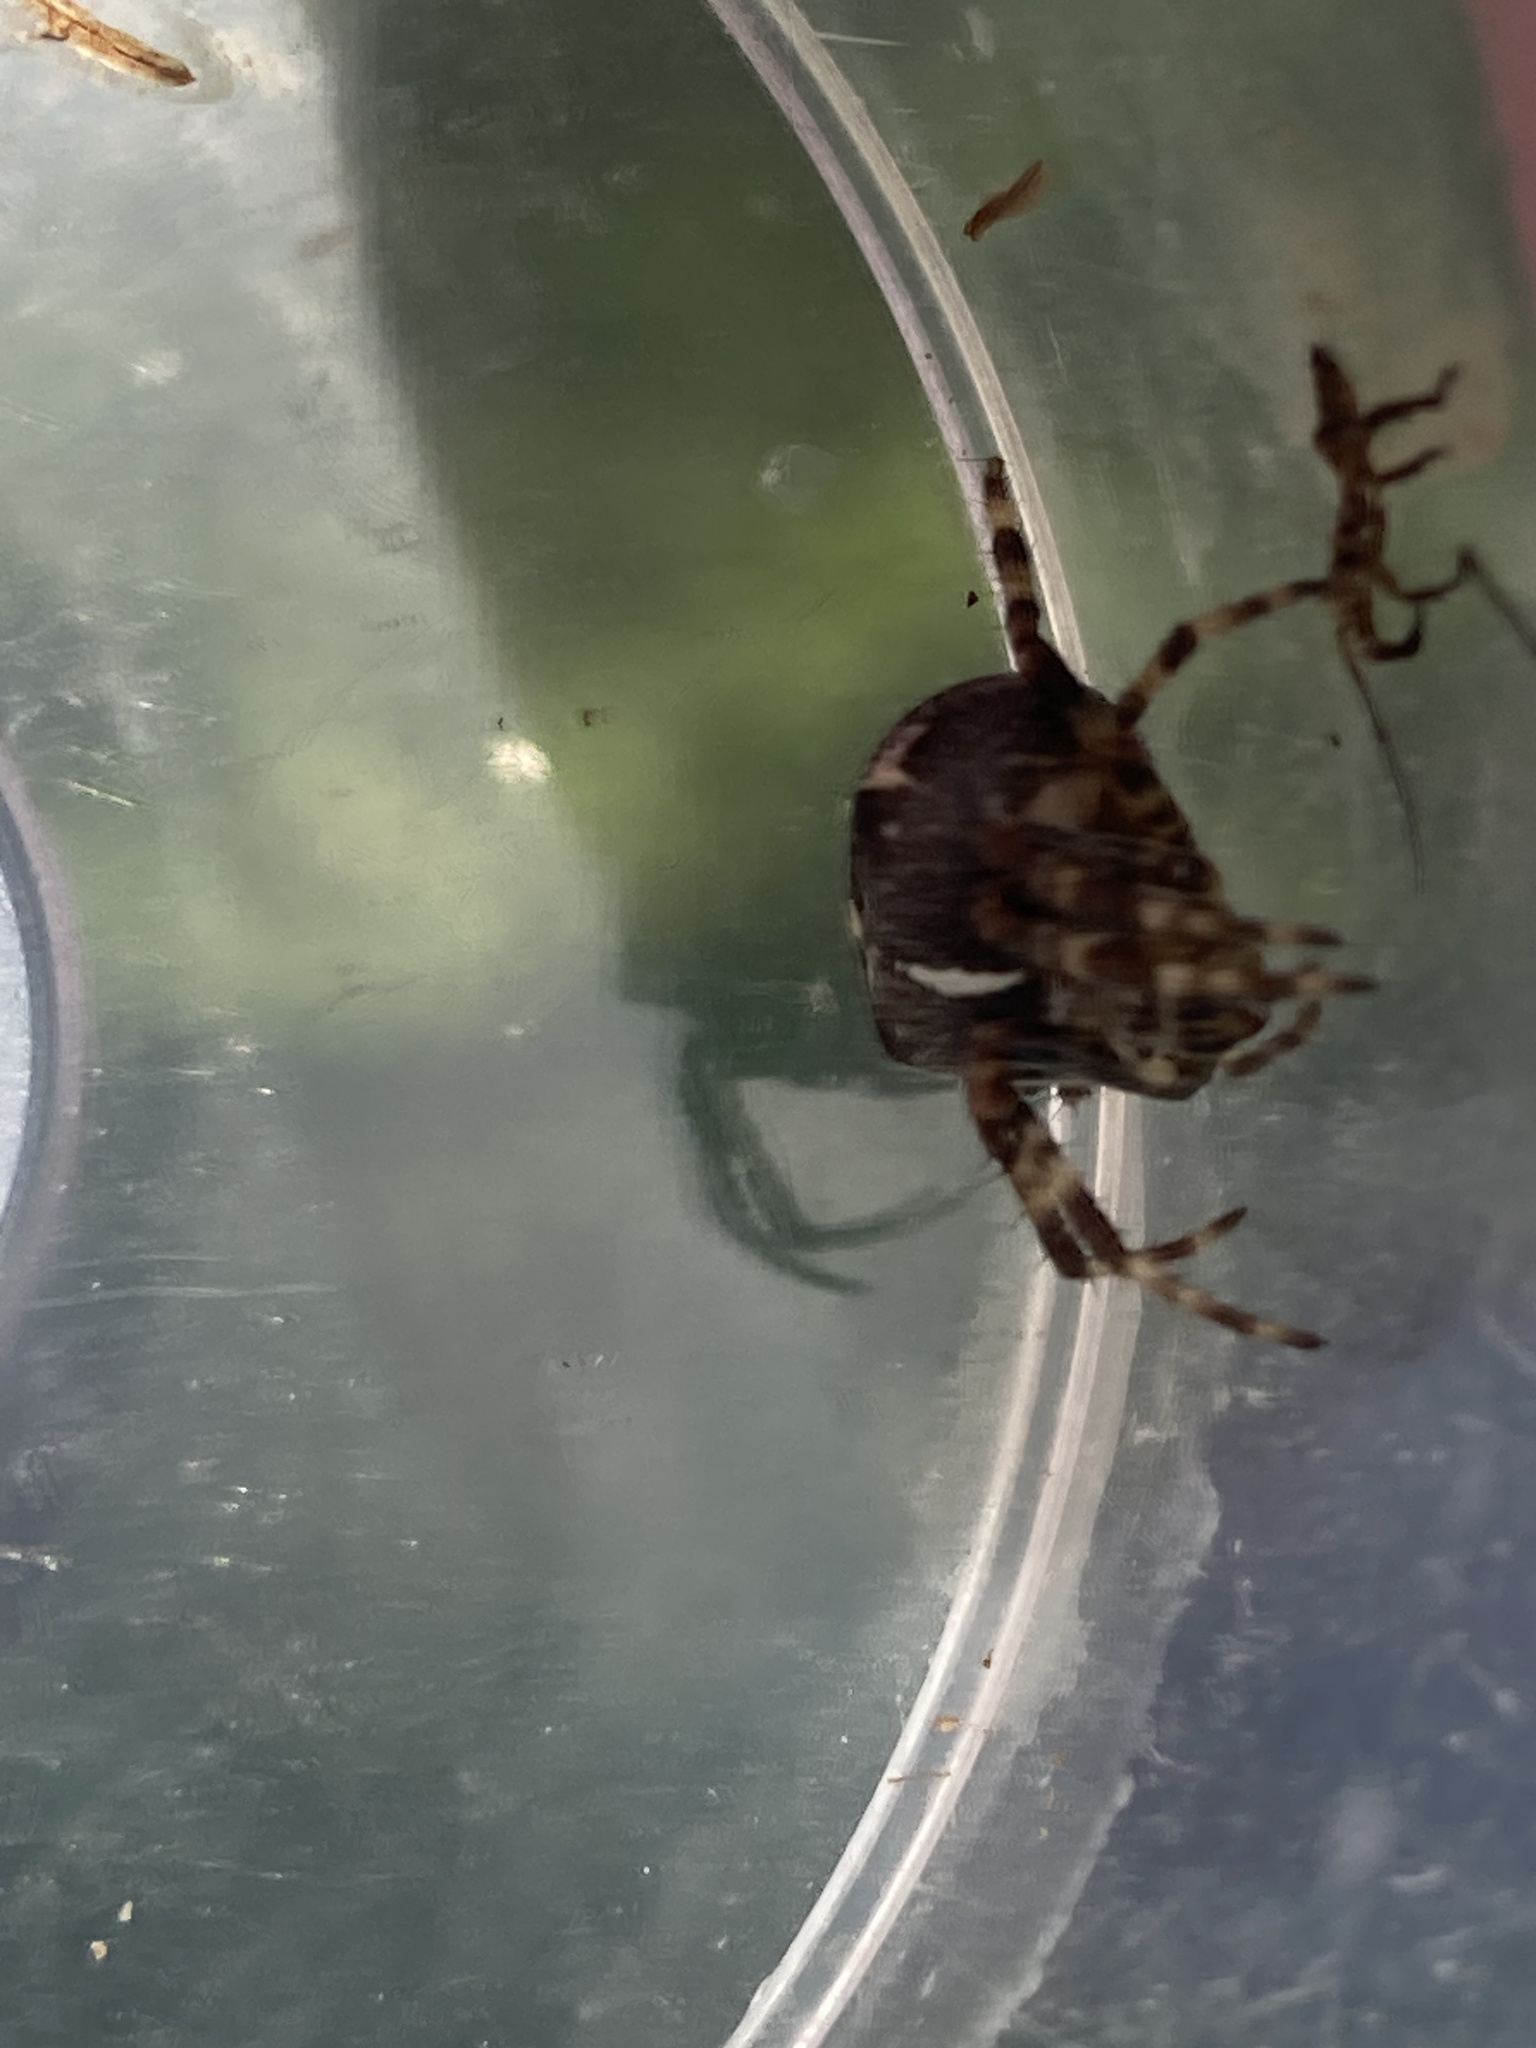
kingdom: Animalia
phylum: Arthropoda
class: Arachnida
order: Araneae
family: Araneidae
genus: Araneus
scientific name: Araneus diadematus
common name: Cross orbweaver
